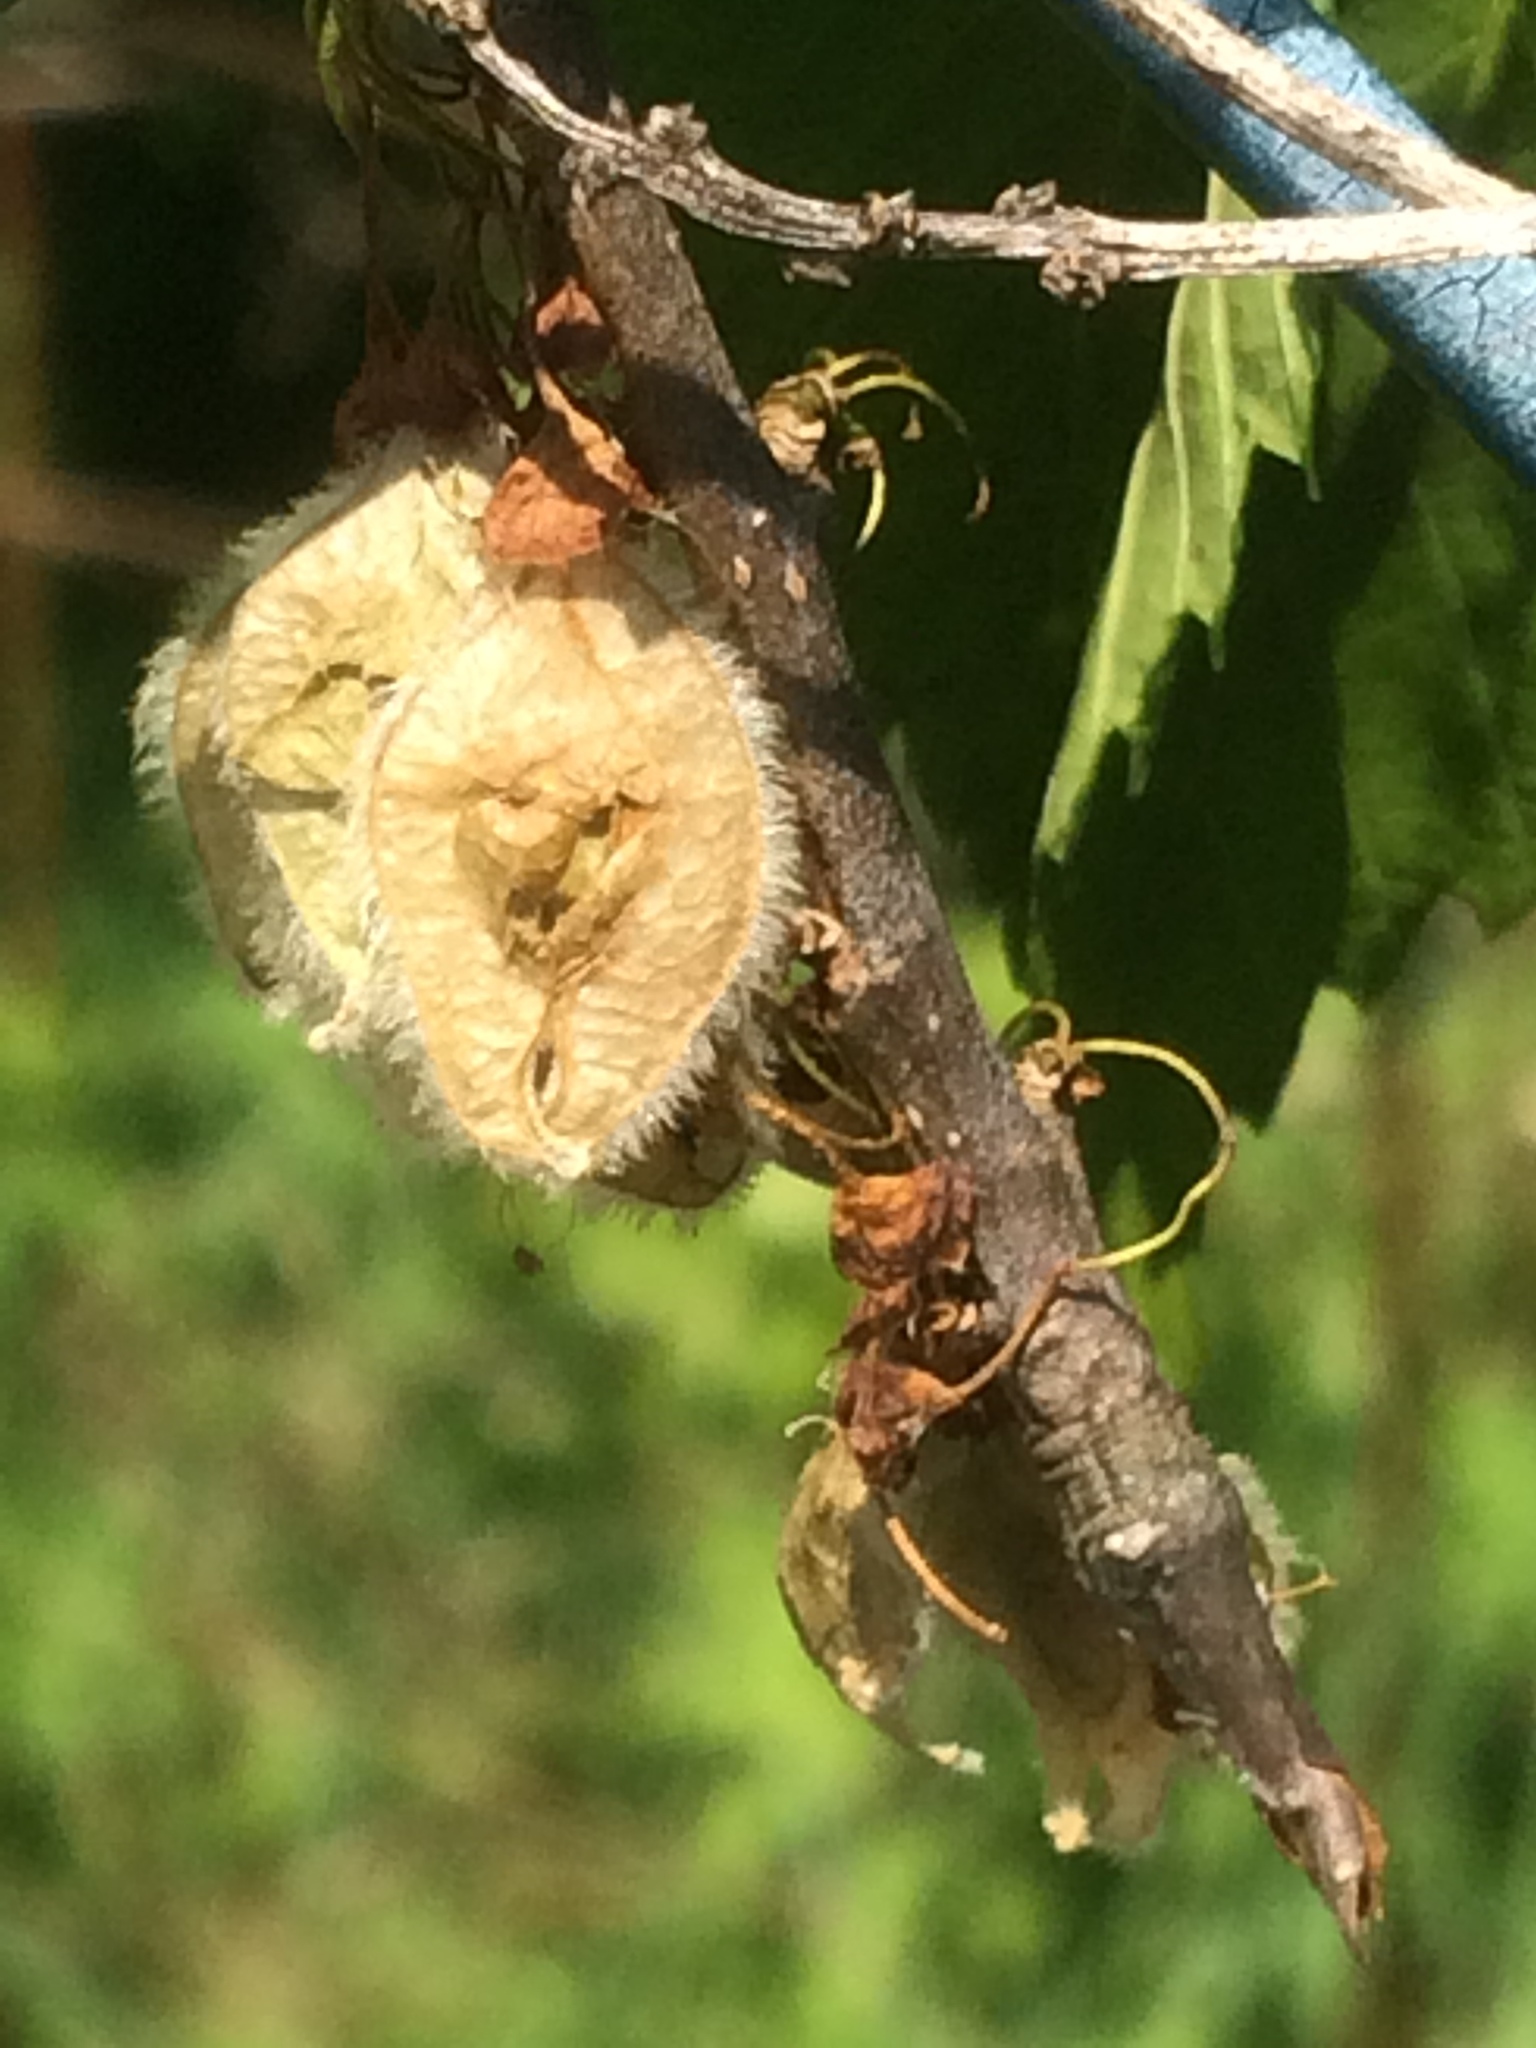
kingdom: Plantae
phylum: Tracheophyta
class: Magnoliopsida
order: Rosales
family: Ulmaceae
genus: Ulmus
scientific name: Ulmus americana
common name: American elm
